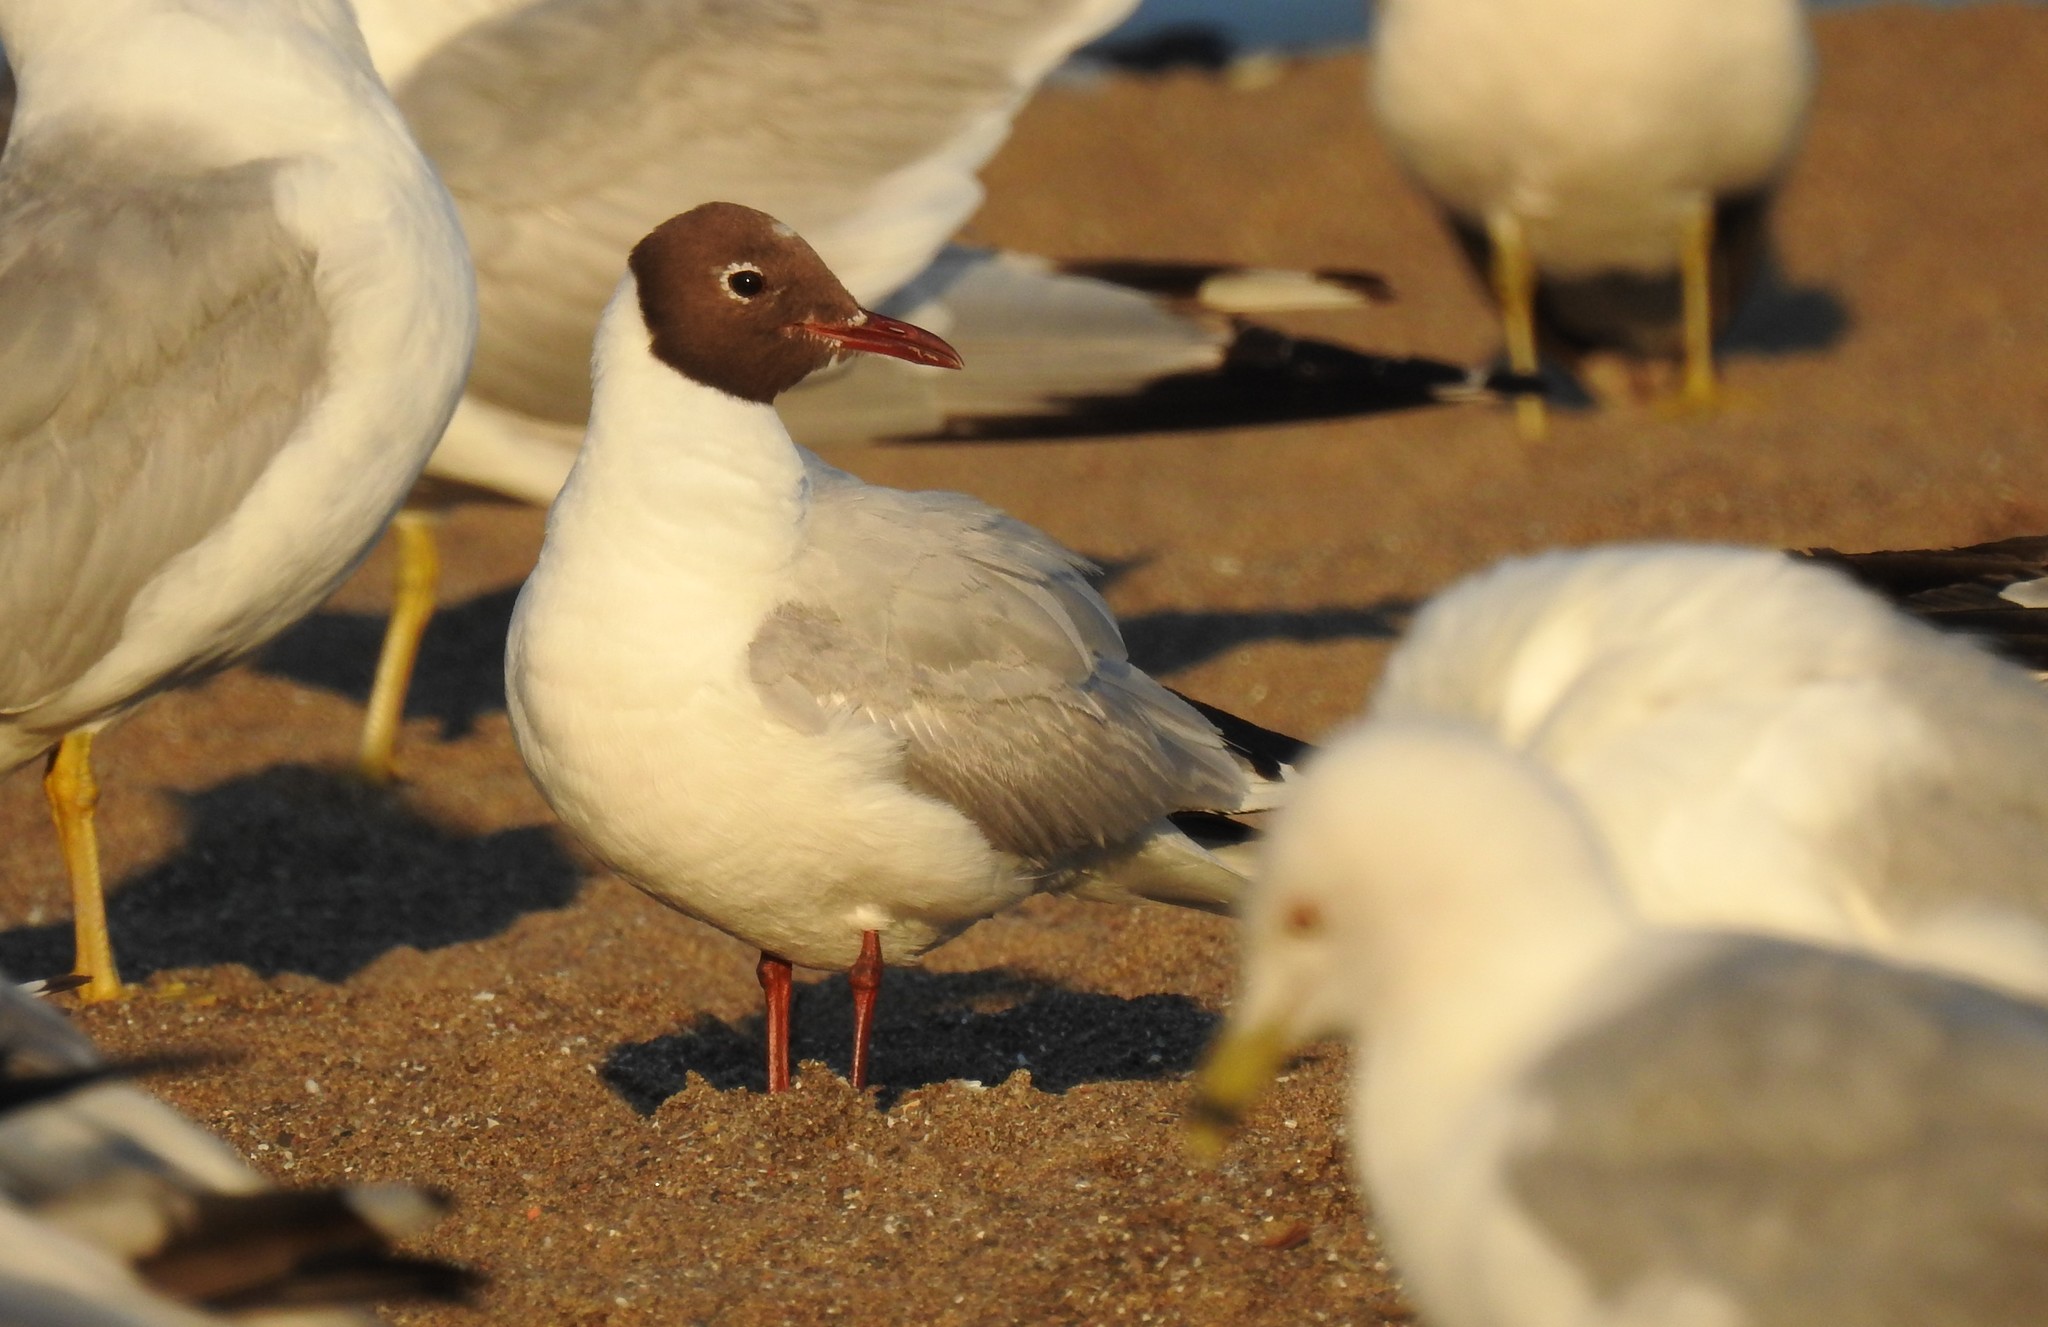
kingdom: Animalia
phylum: Chordata
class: Aves
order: Charadriiformes
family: Laridae
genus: Chroicocephalus
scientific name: Chroicocephalus ridibundus
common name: Black-headed gull
